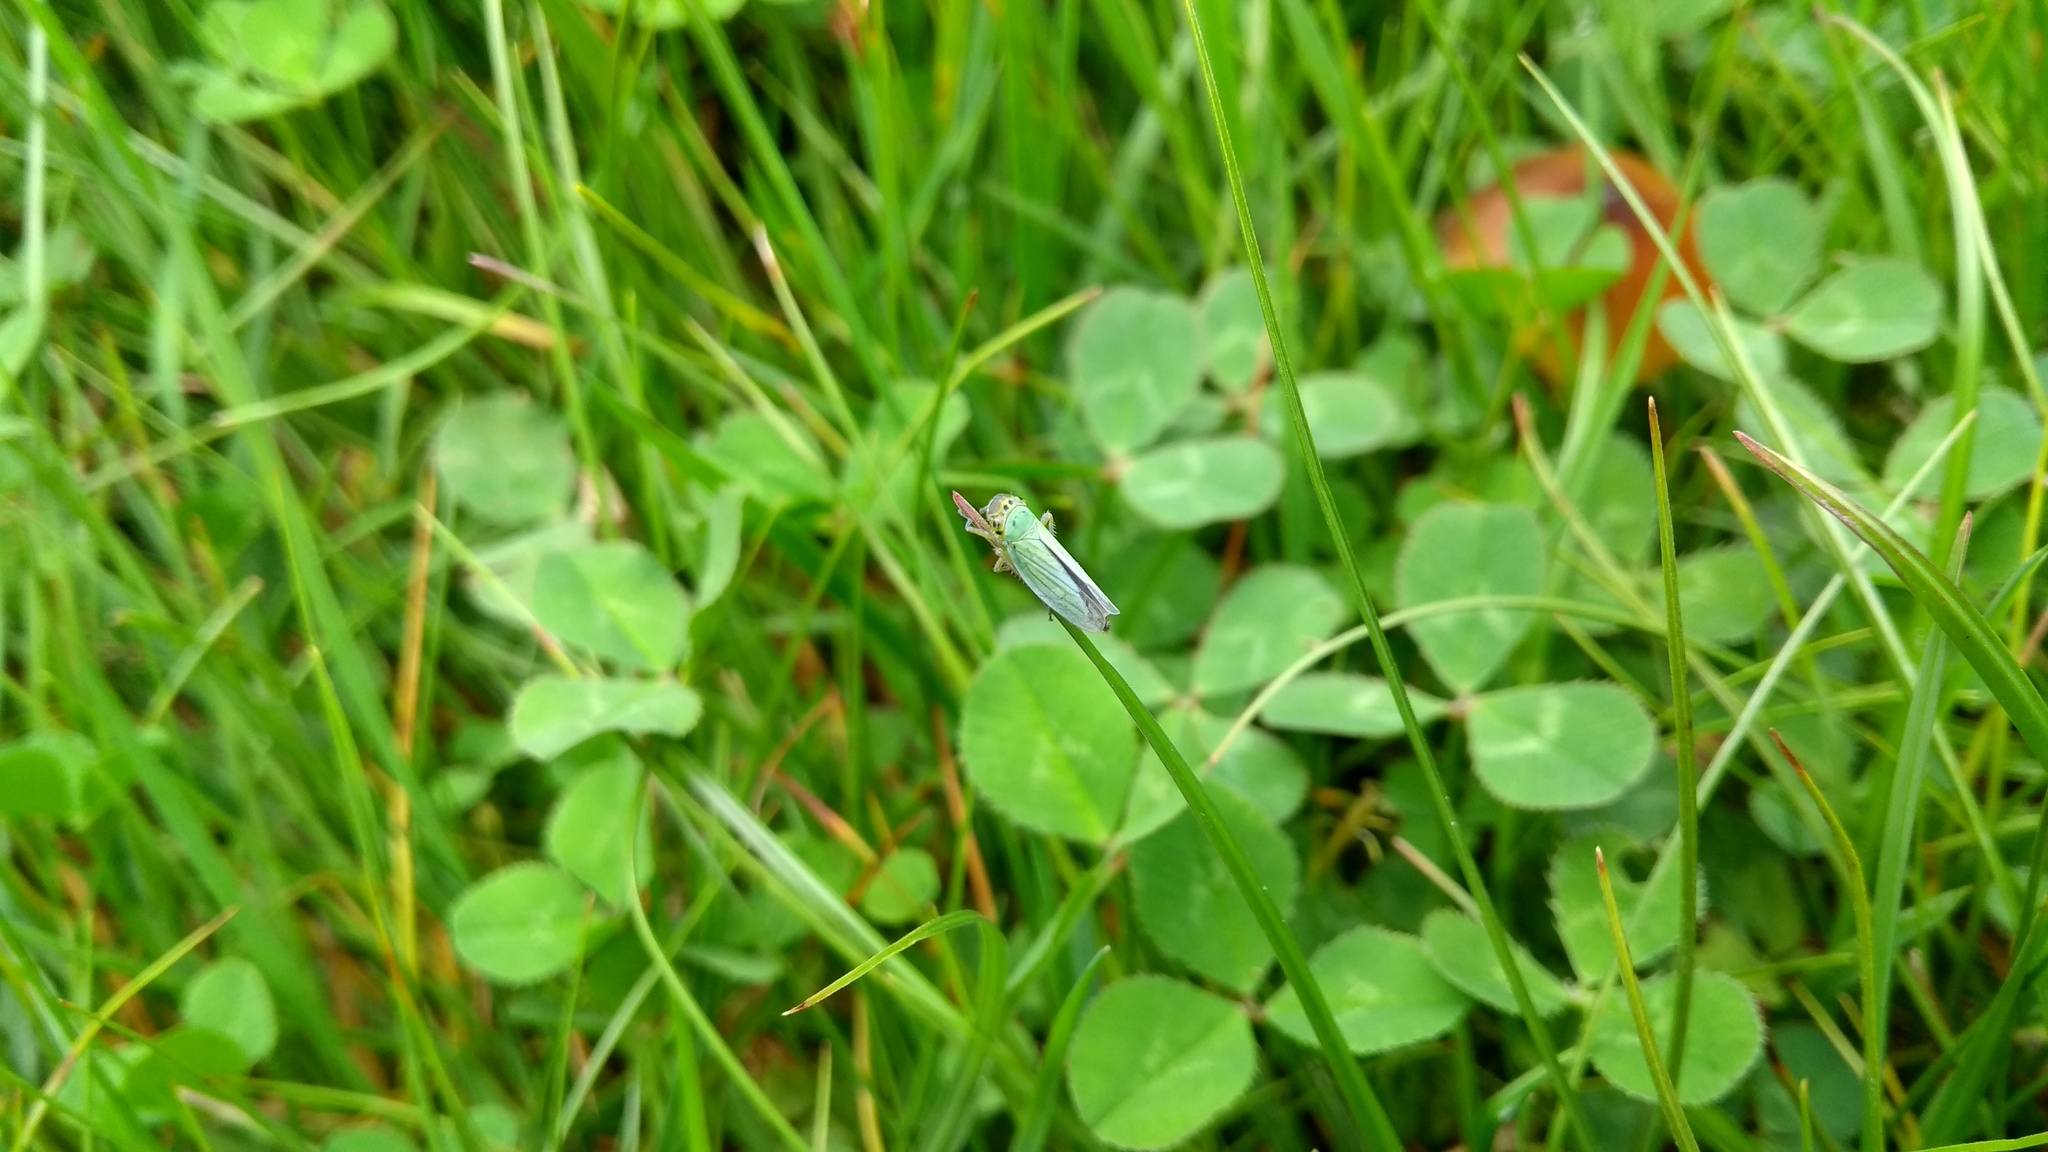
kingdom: Animalia
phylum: Arthropoda
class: Insecta
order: Hemiptera
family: Cicadellidae
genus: Cicadella
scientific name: Cicadella viridis
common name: Leafhopper
